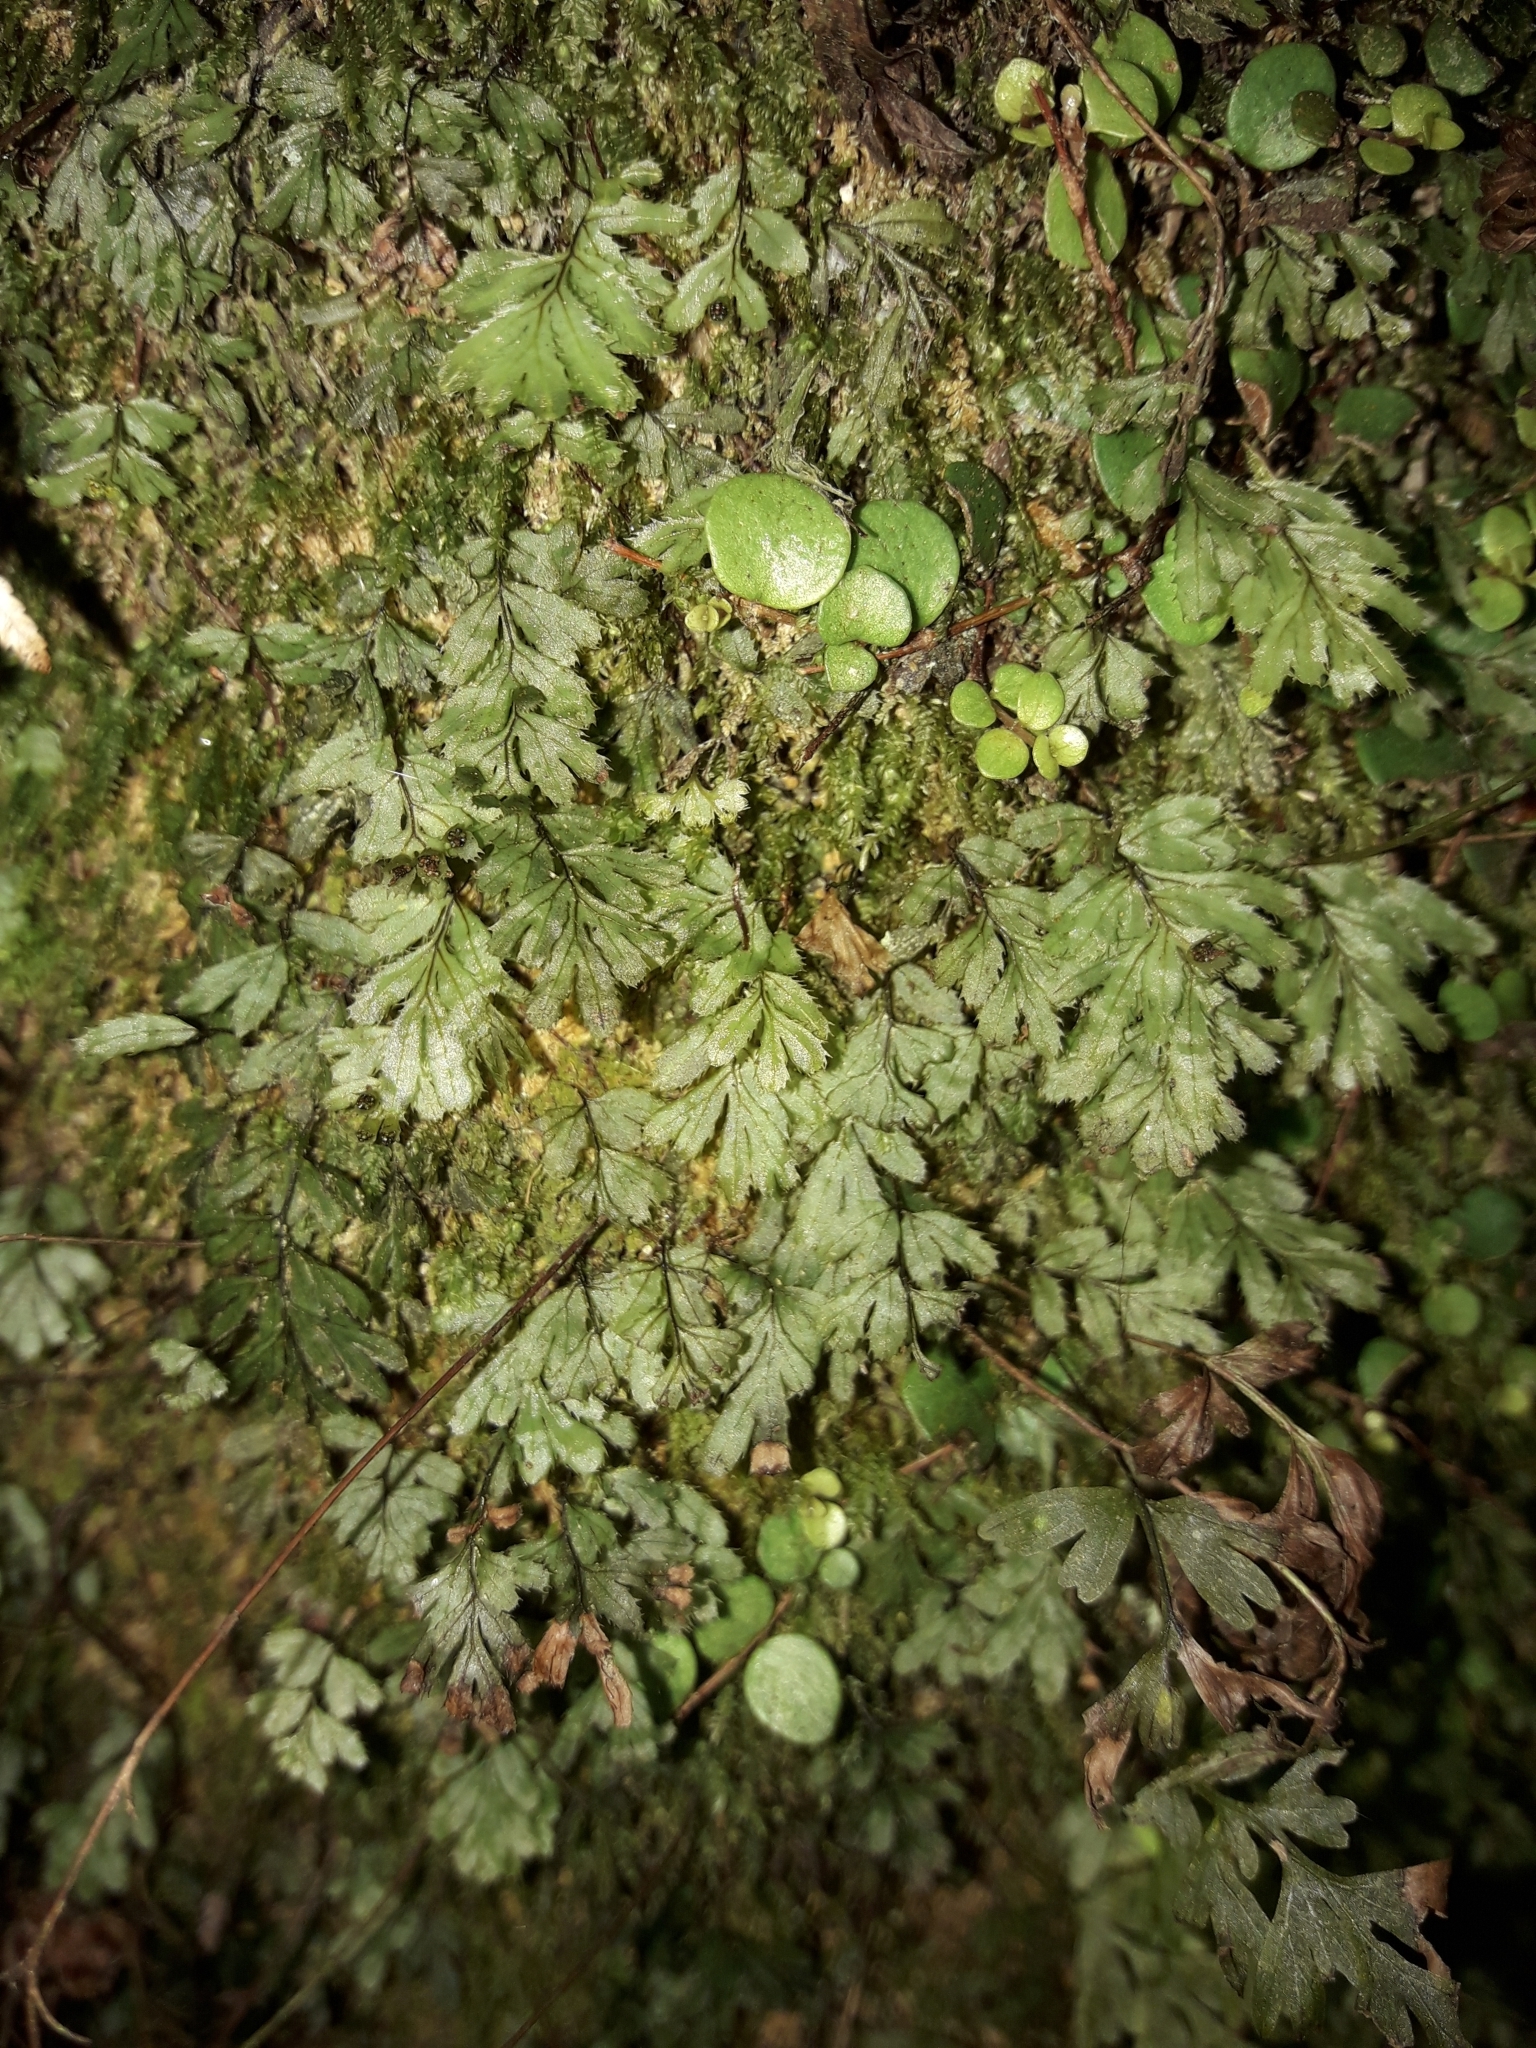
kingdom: Plantae
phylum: Tracheophyta
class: Polypodiopsida
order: Hymenophyllales
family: Hymenophyllaceae
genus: Hymenophyllum
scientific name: Hymenophyllum revolutum
